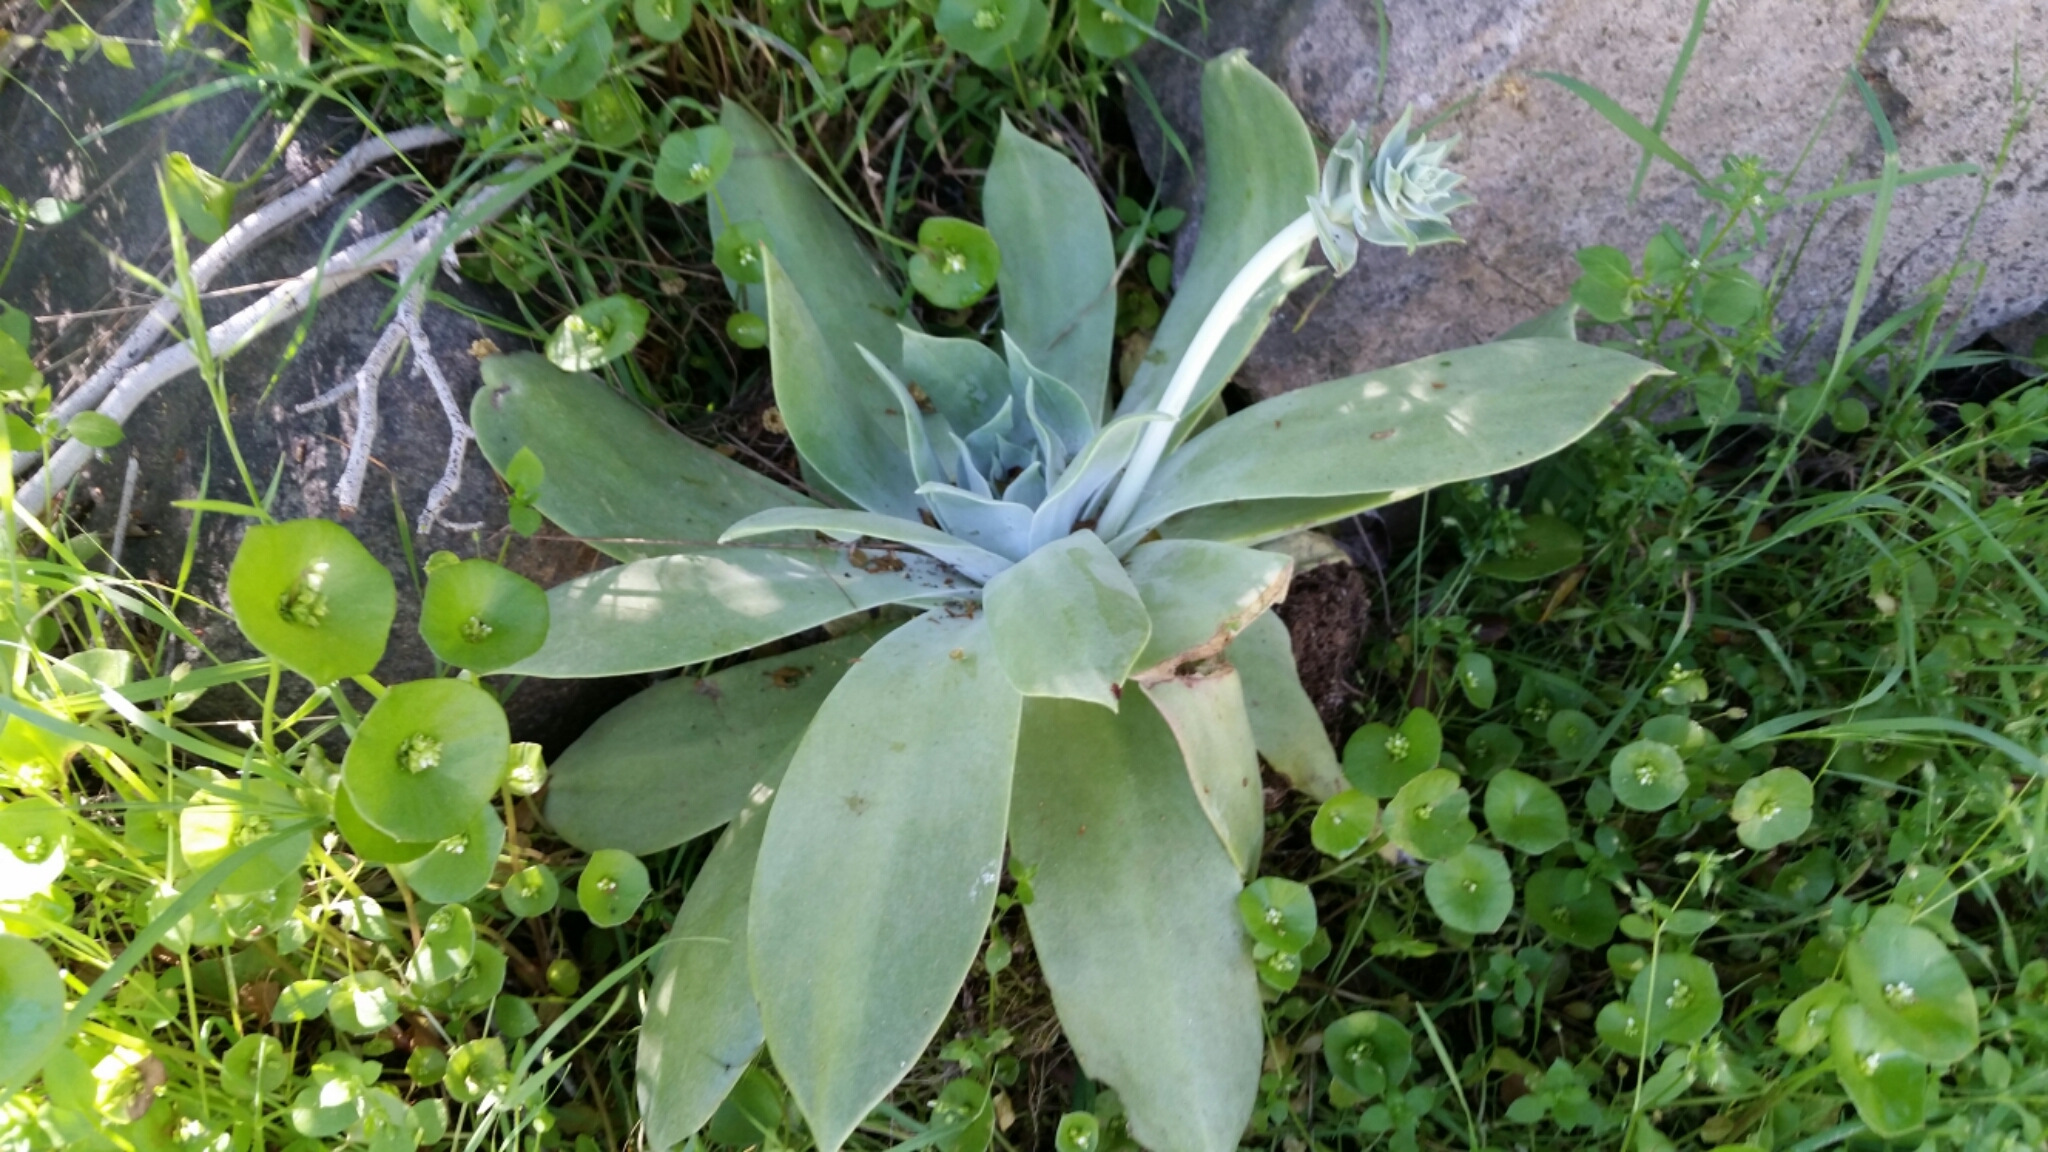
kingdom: Plantae
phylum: Tracheophyta
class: Magnoliopsida
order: Saxifragales
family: Crassulaceae
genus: Dudleya
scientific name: Dudleya pulverulenta
